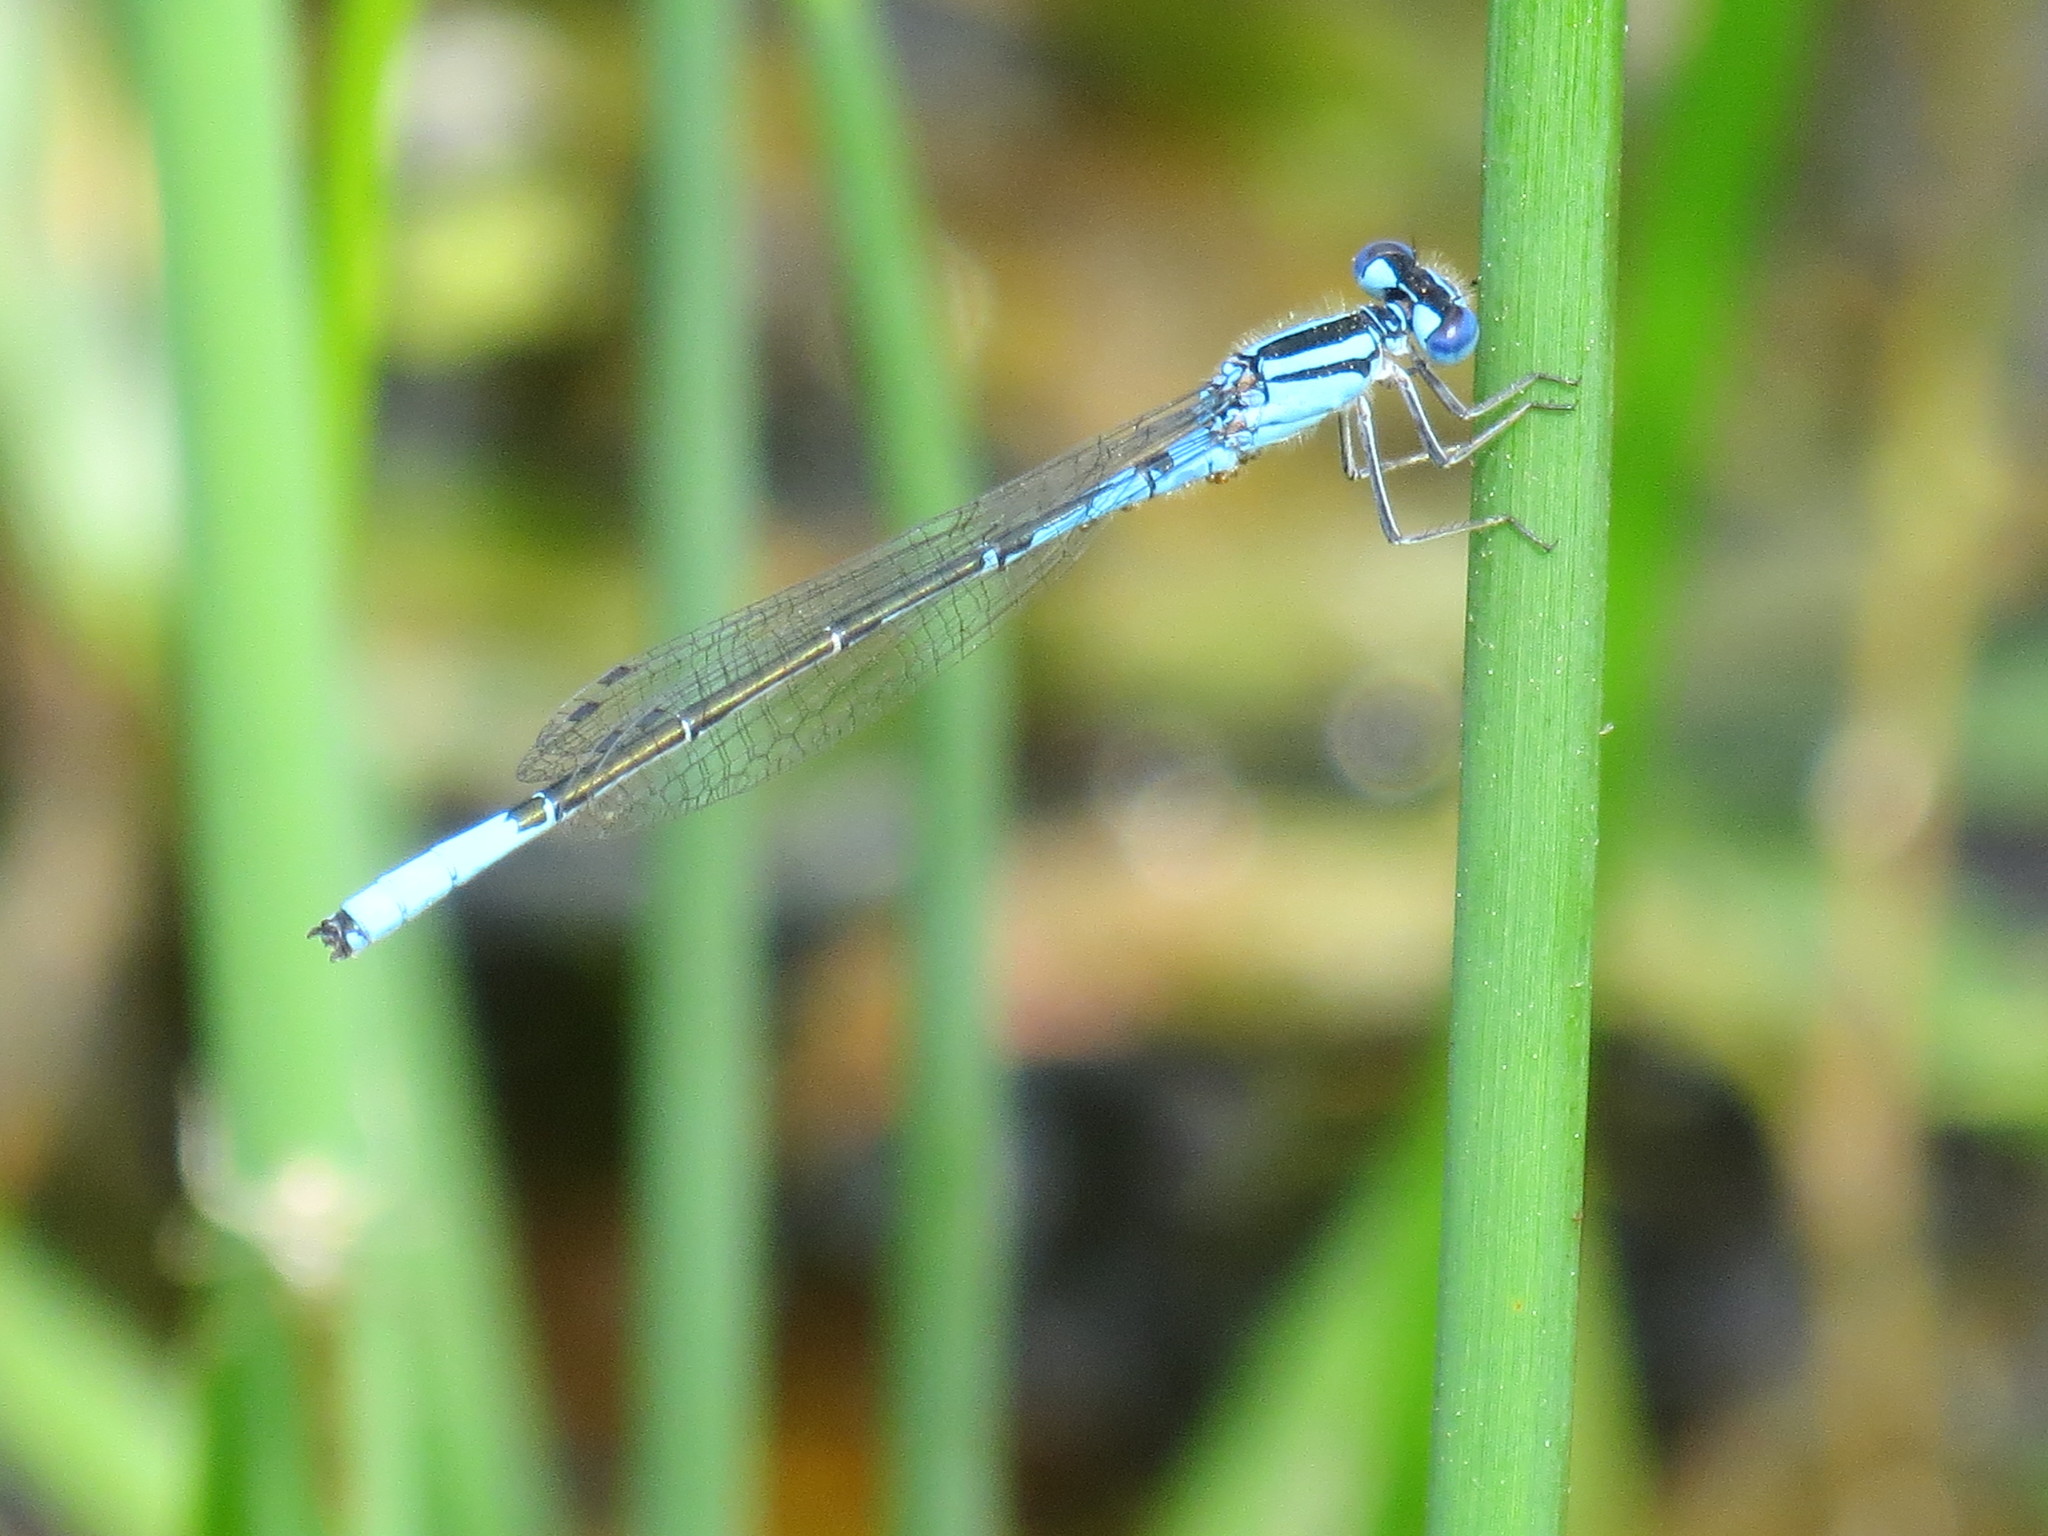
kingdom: Animalia
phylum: Arthropoda
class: Insecta
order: Odonata
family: Coenagrionidae
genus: Enallagma
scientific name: Enallagma aspersum
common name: Azure bluet
